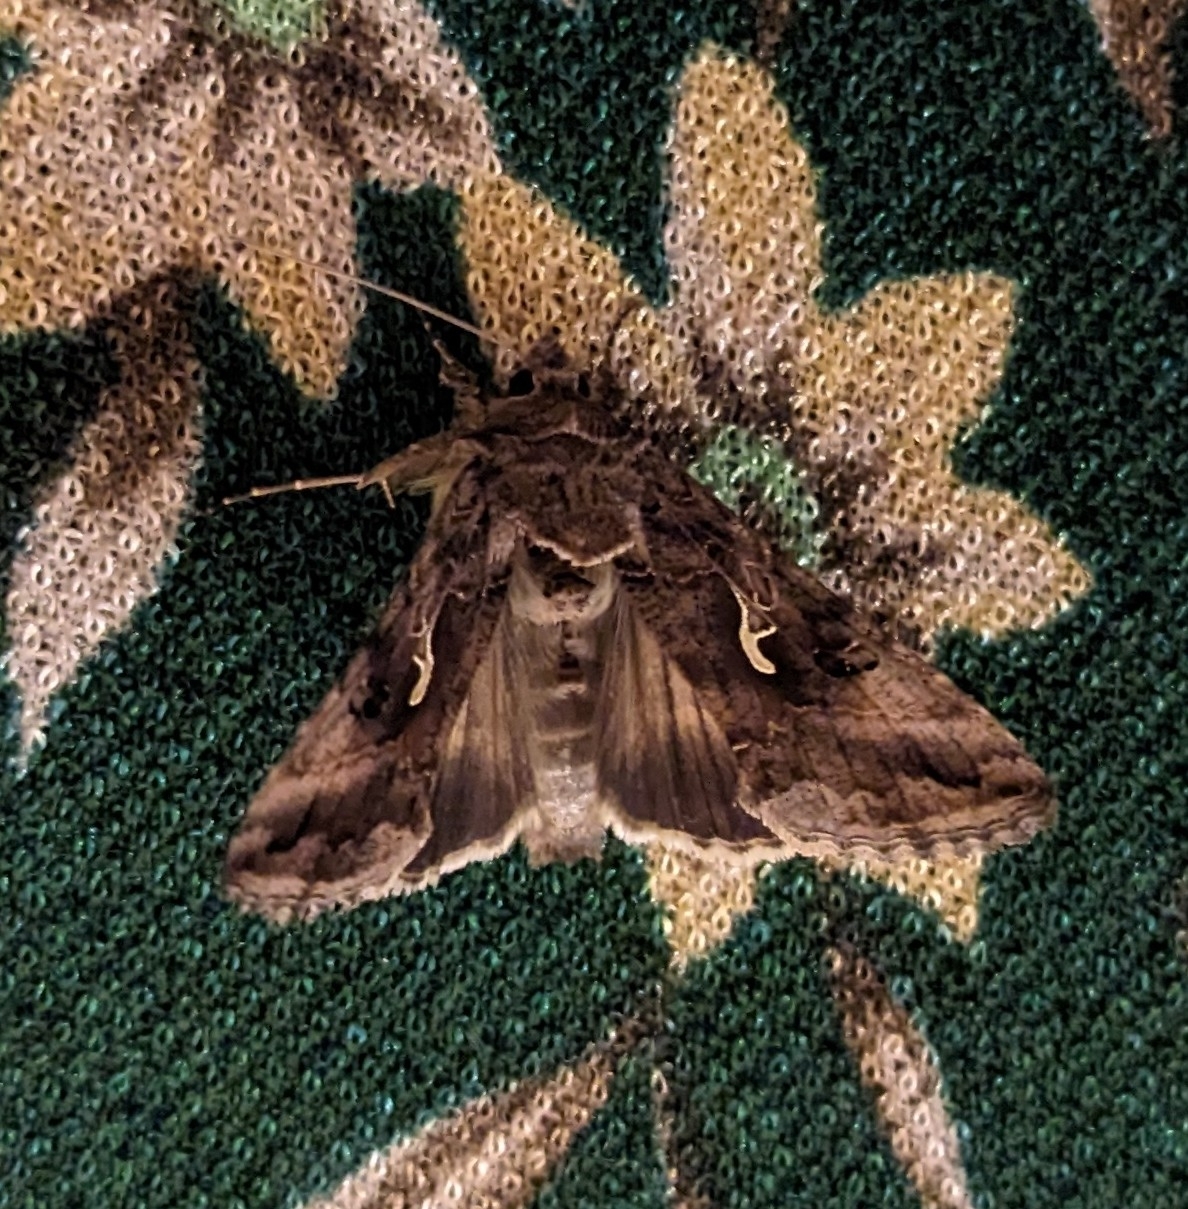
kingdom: Animalia
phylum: Arthropoda
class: Insecta
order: Lepidoptera
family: Noctuidae
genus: Autographa
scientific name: Autographa gamma
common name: Silver y
